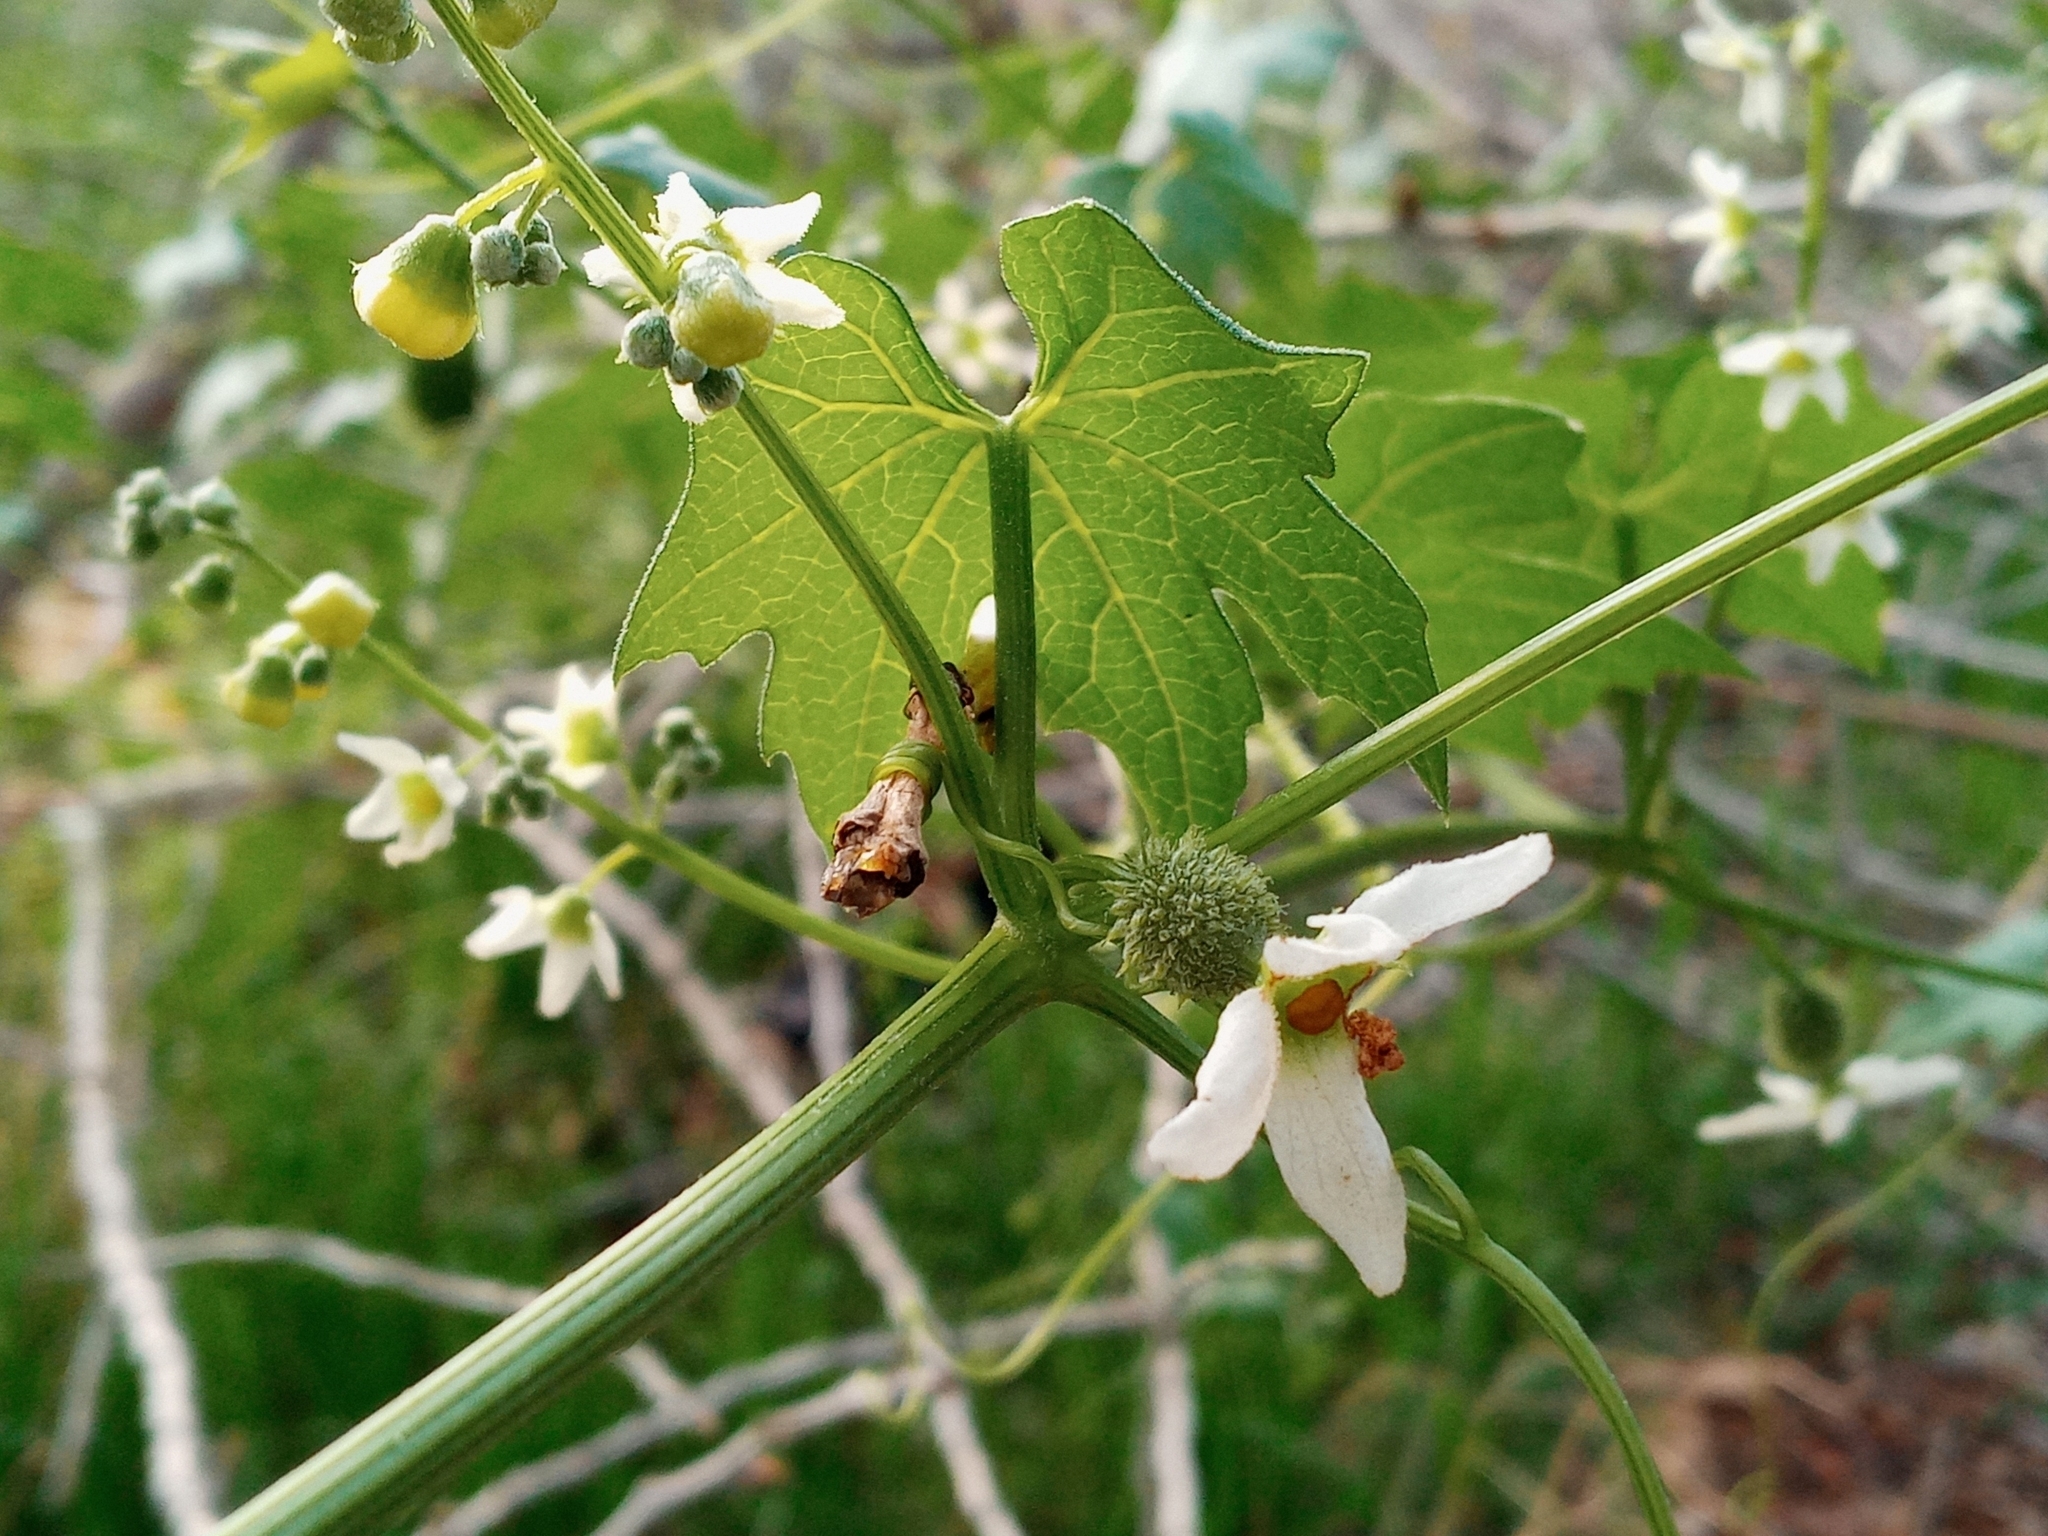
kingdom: Plantae
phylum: Tracheophyta
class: Magnoliopsida
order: Cucurbitales
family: Cucurbitaceae
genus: Marah
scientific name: Marah macrocarpa
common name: Cucamonga manroot
